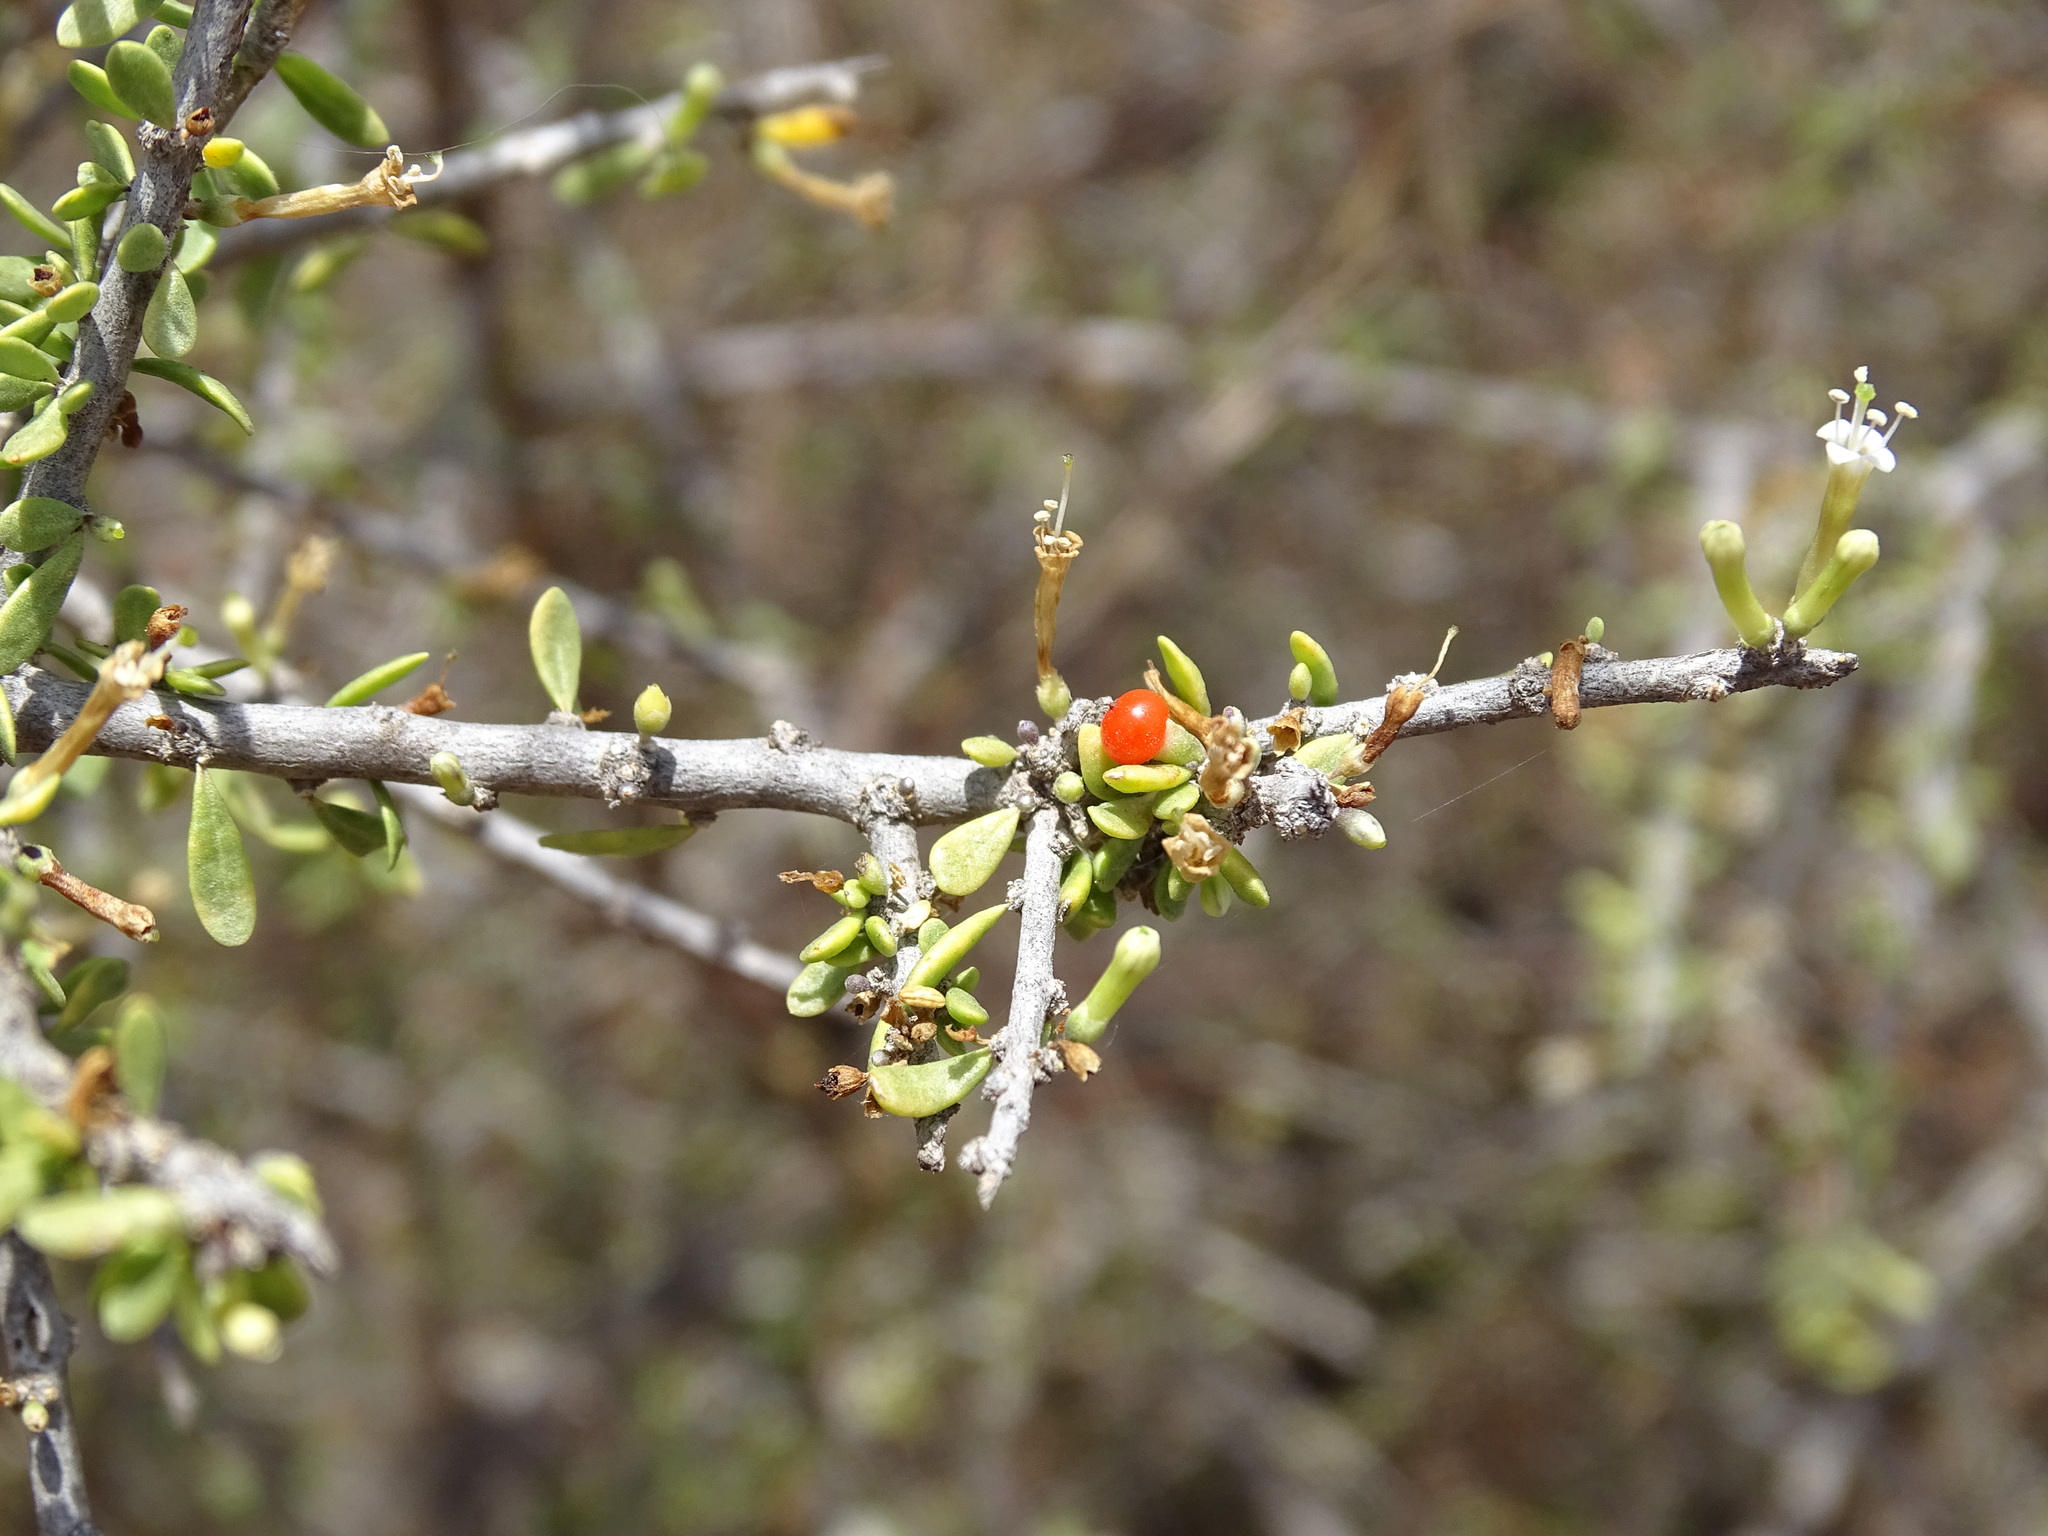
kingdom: Plantae
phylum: Tracheophyta
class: Magnoliopsida
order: Solanales
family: Solanaceae
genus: Lycium
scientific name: Lycium andersonii
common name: Water-jacket
